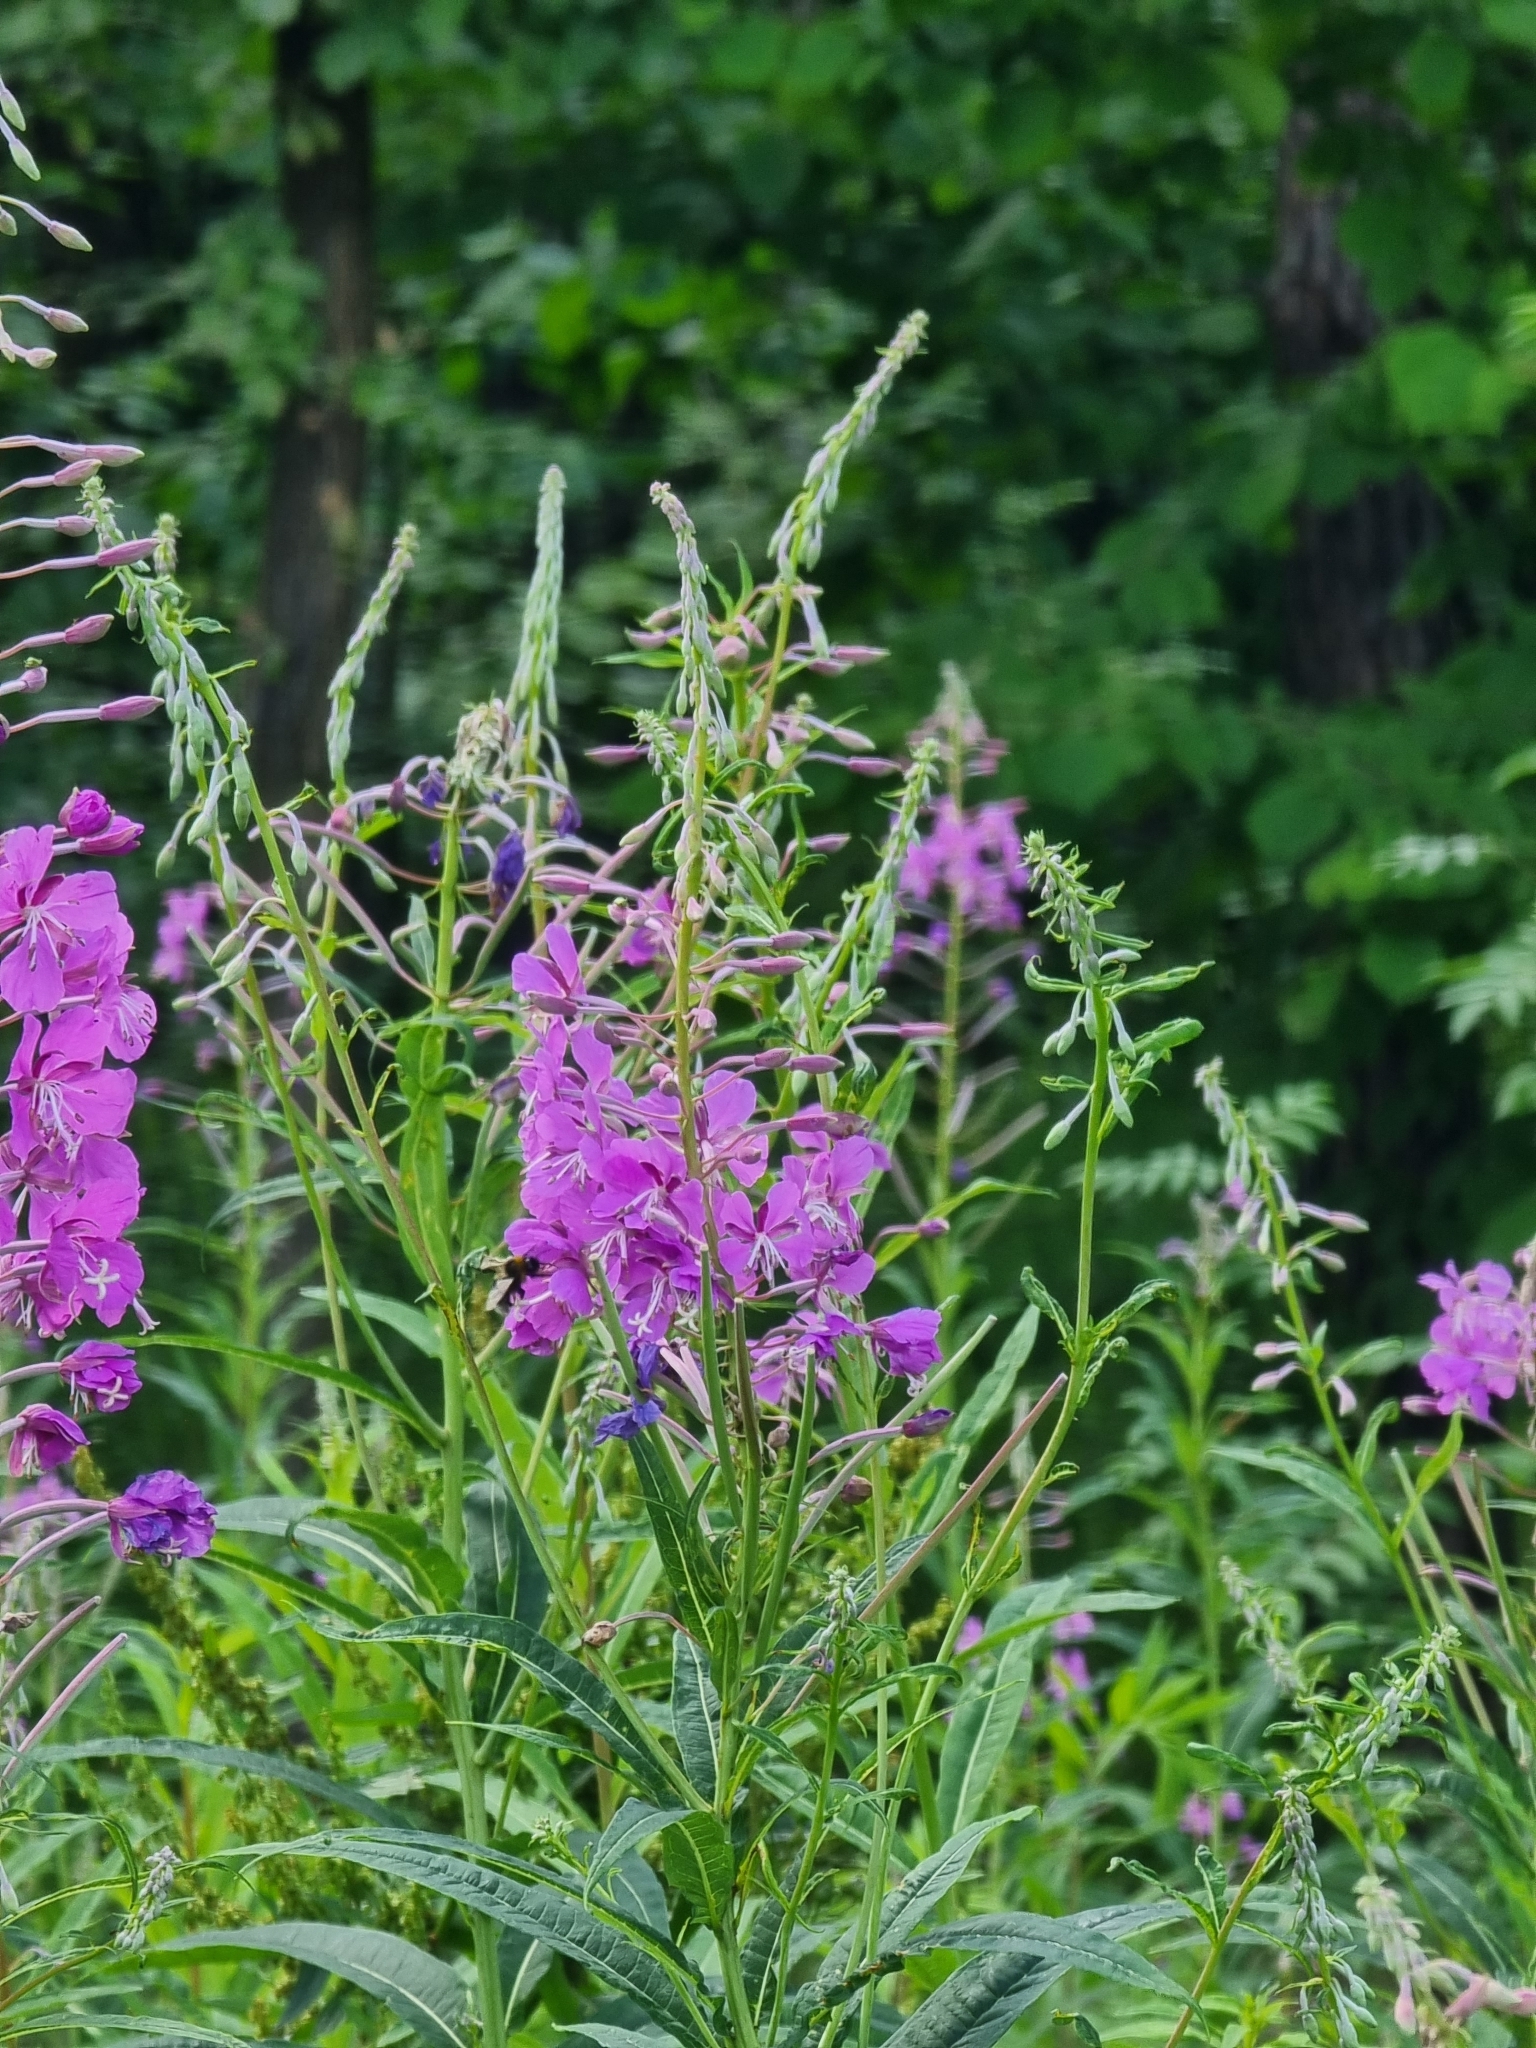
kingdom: Plantae
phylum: Tracheophyta
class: Magnoliopsida
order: Myrtales
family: Onagraceae
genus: Chamaenerion
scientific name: Chamaenerion angustifolium
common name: Fireweed
